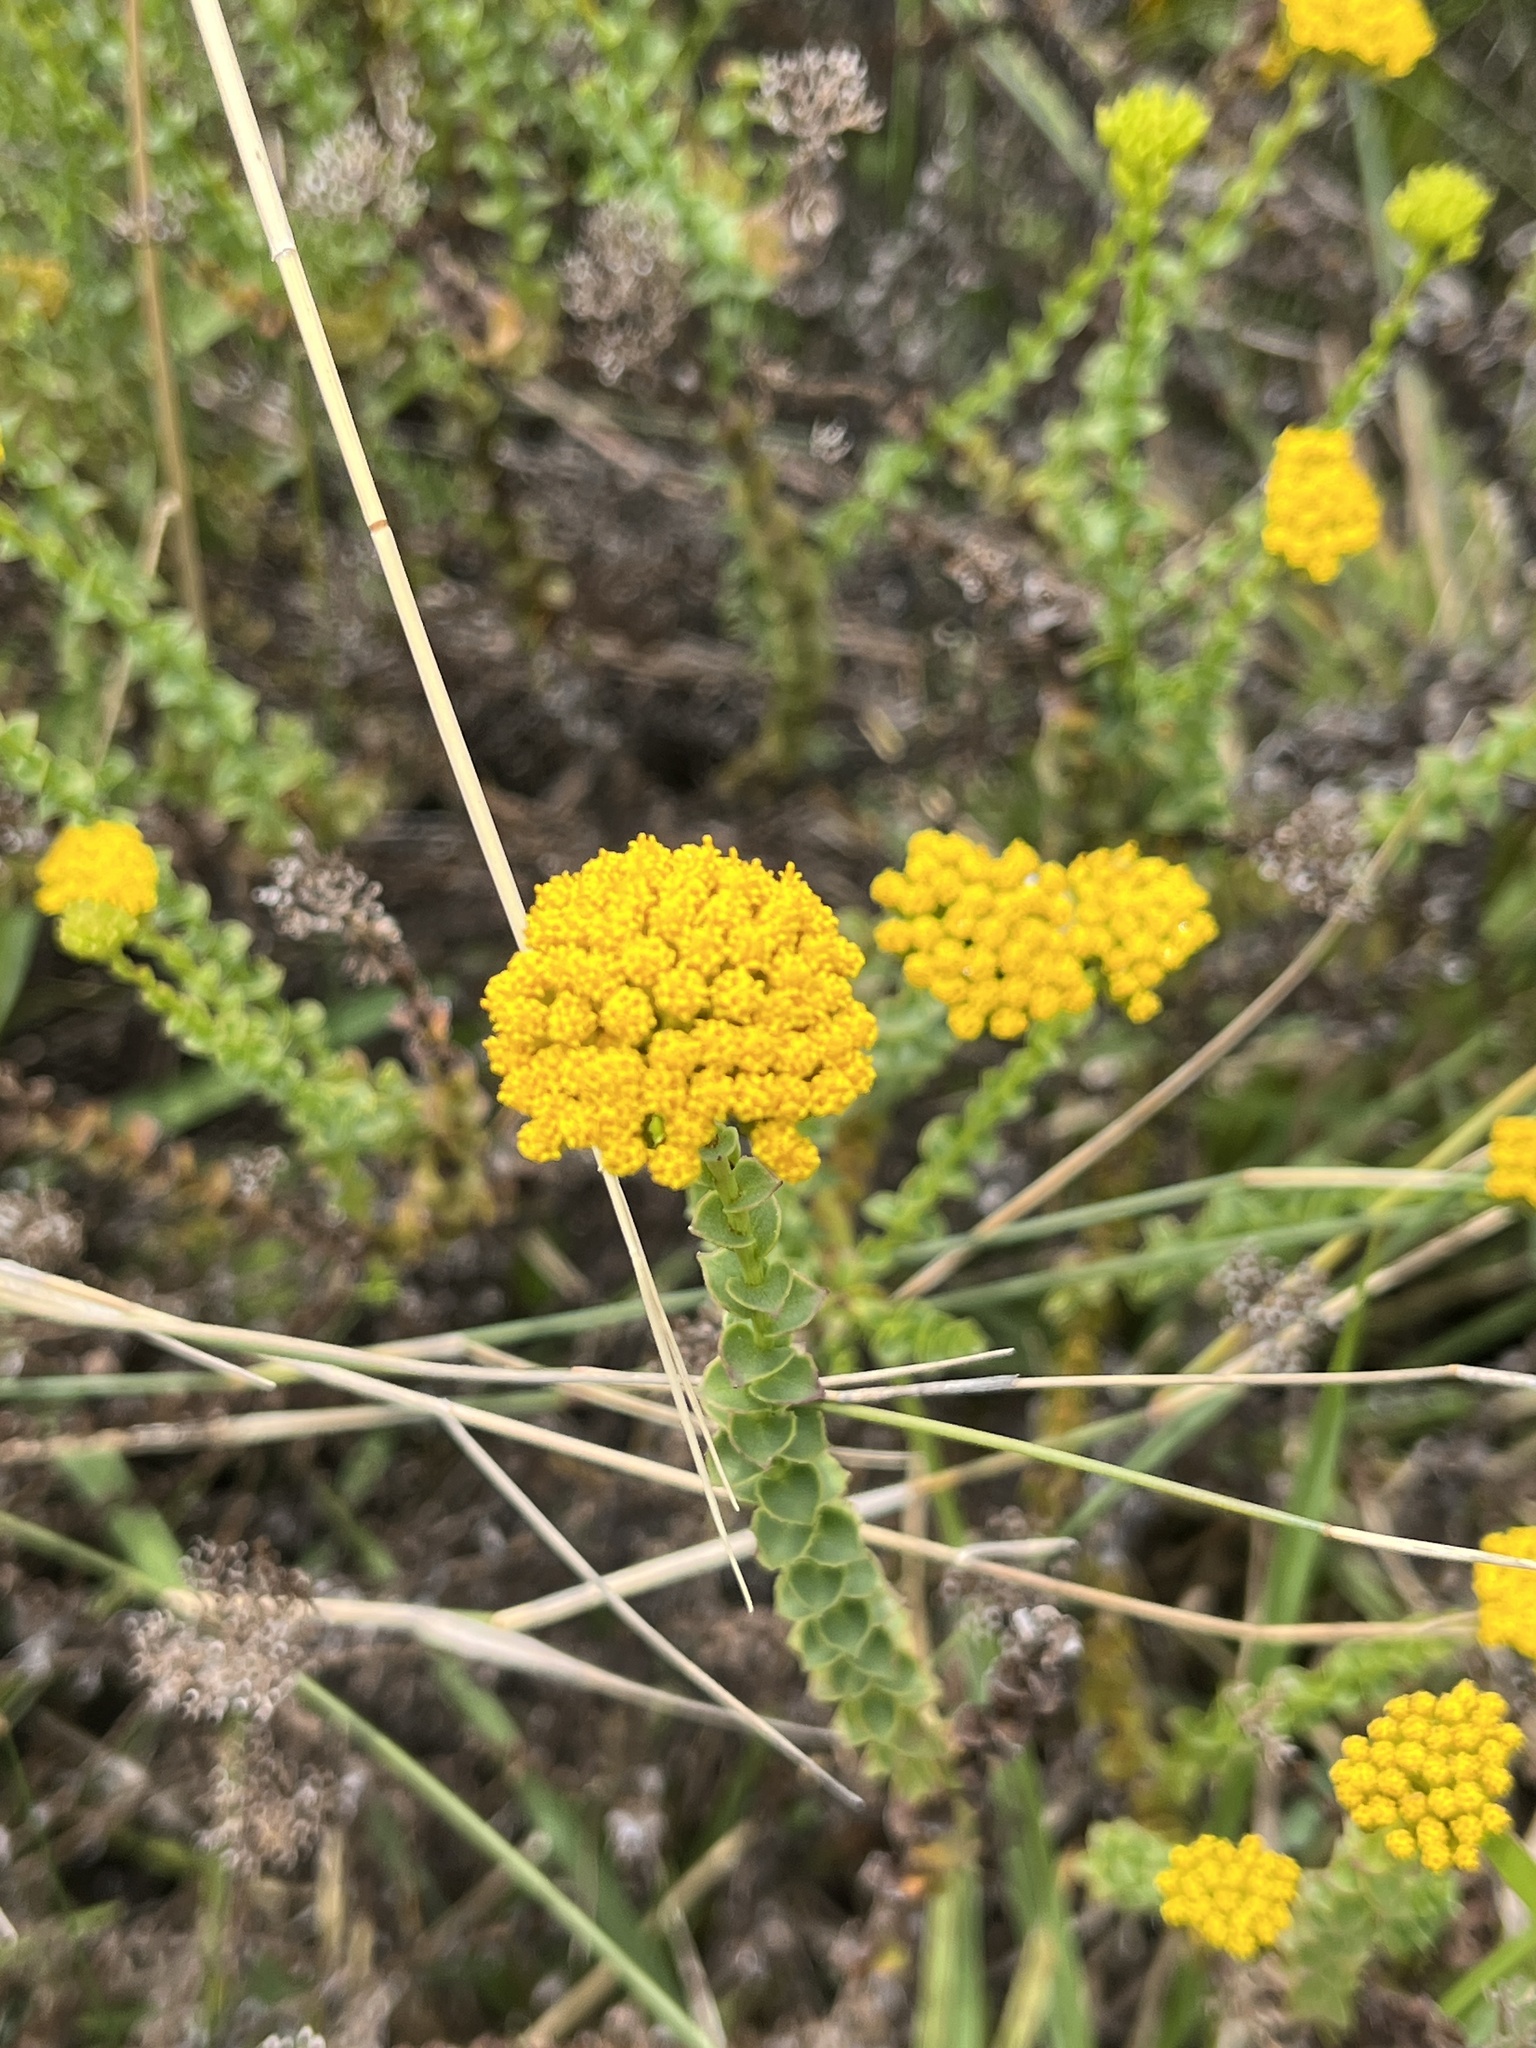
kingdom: Plantae
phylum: Tracheophyta
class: Magnoliopsida
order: Asterales
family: Asteraceae
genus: Athanasia
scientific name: Athanasia dentata
